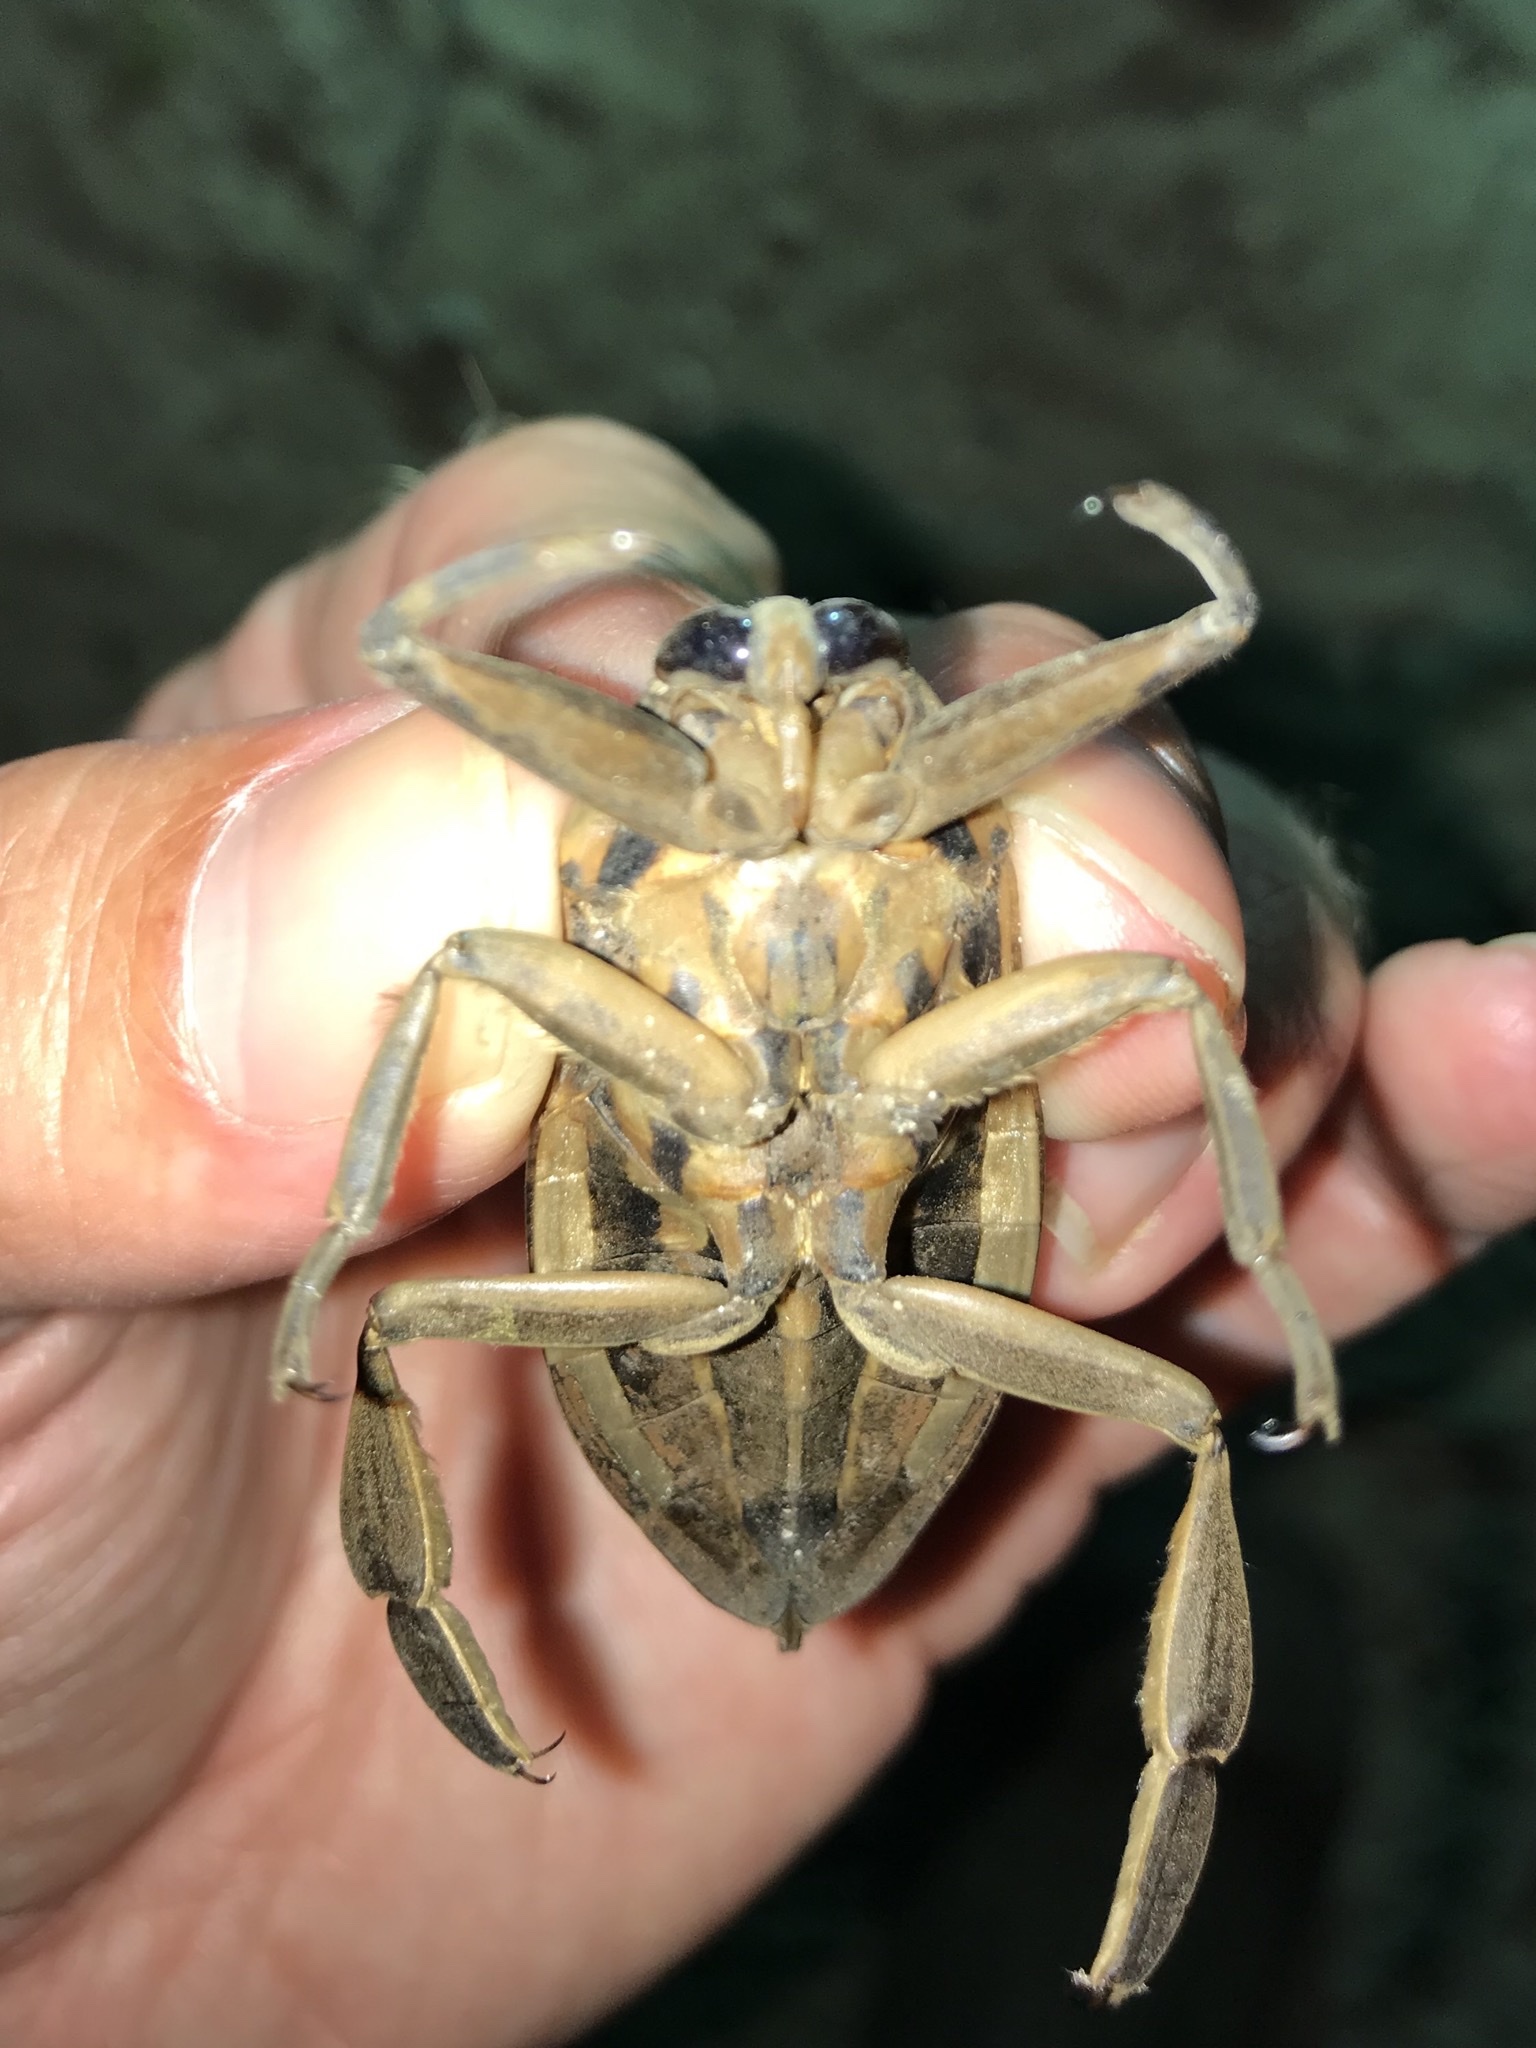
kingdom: Animalia
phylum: Arthropoda
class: Insecta
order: Hemiptera
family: Belostomatidae
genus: Benacus
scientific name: Benacus griseus
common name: Eastern toe-biter
